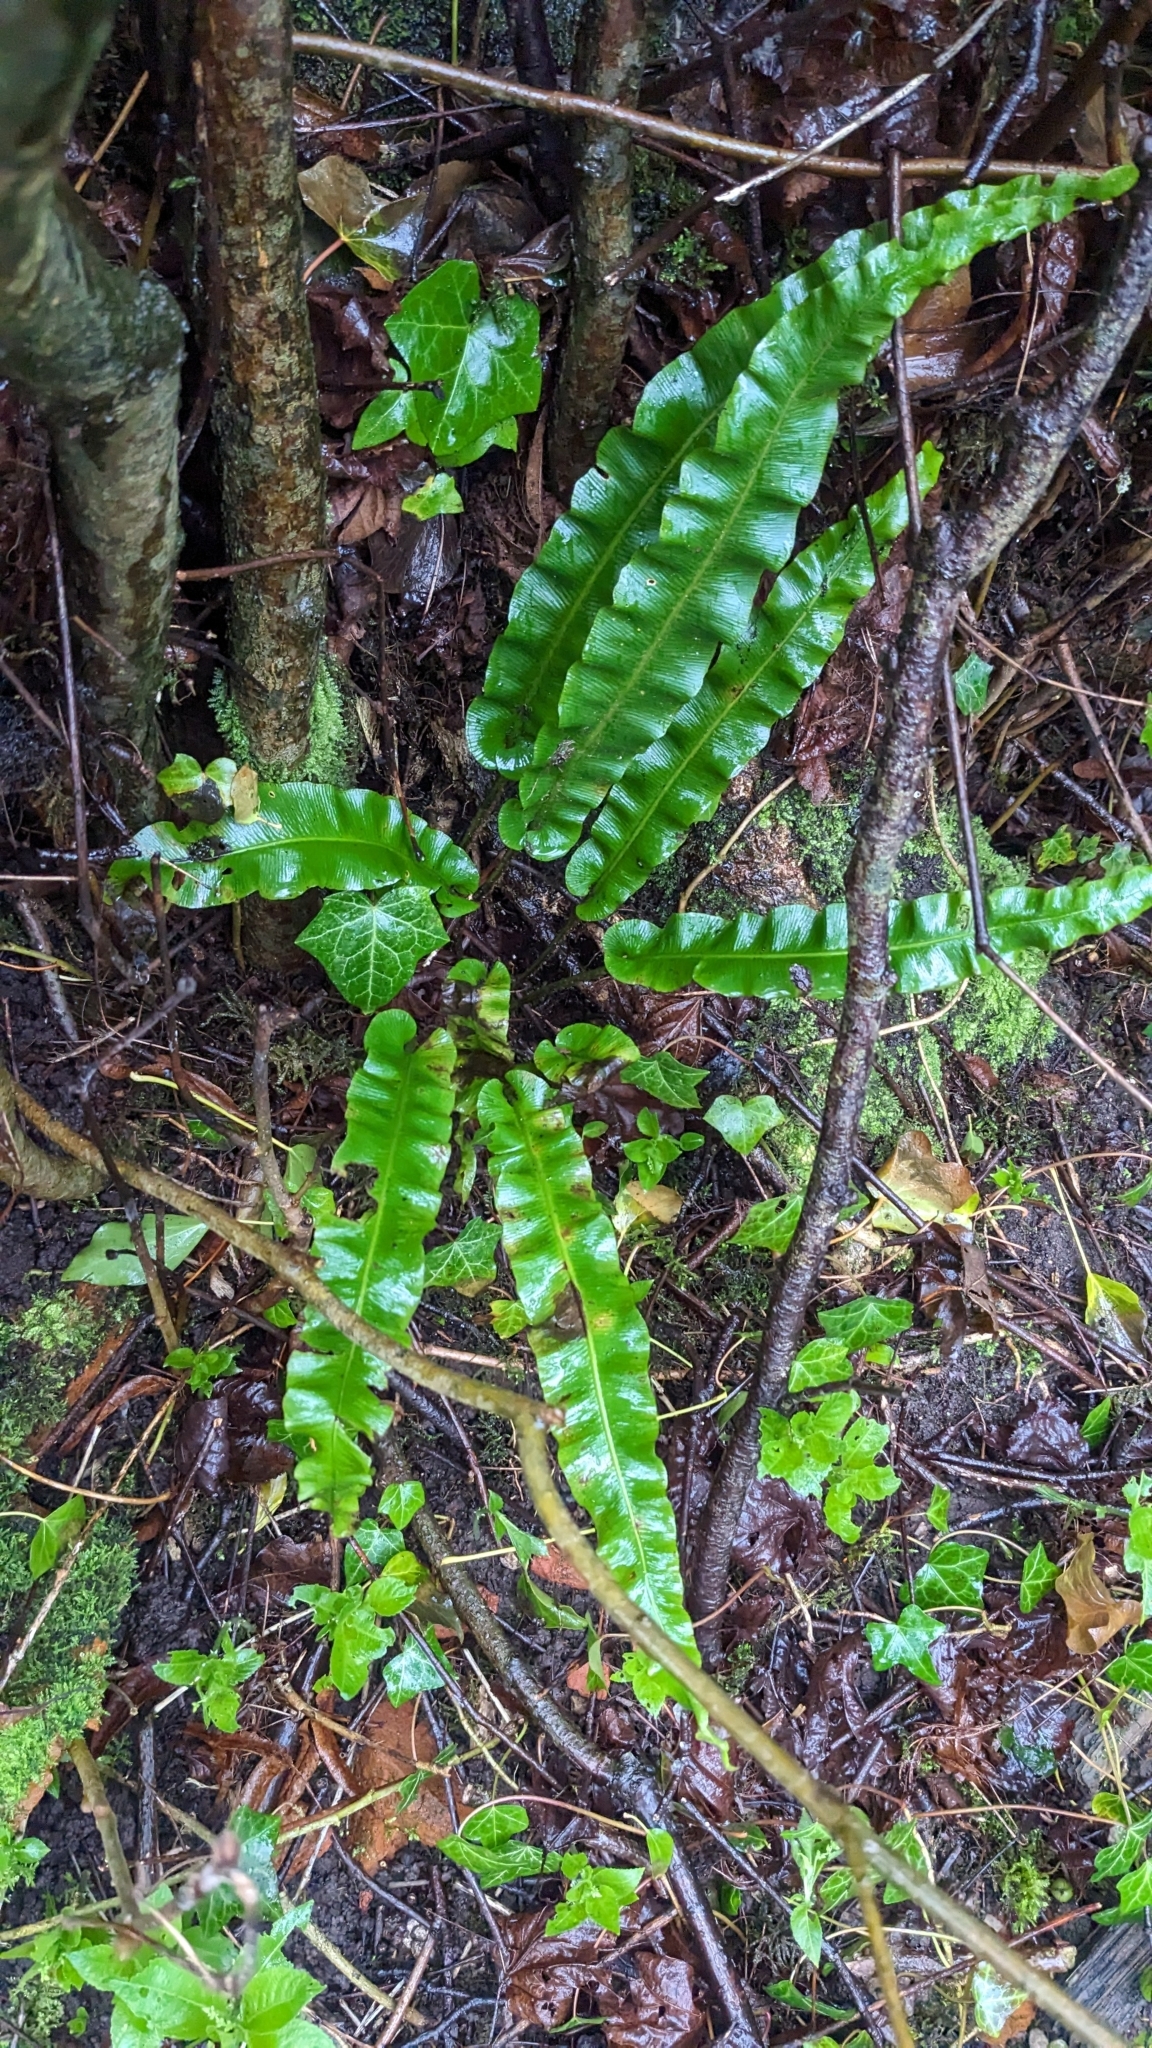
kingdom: Plantae
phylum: Tracheophyta
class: Polypodiopsida
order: Polypodiales
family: Aspleniaceae
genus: Asplenium
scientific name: Asplenium scolopendrium
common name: Hart's-tongue fern
